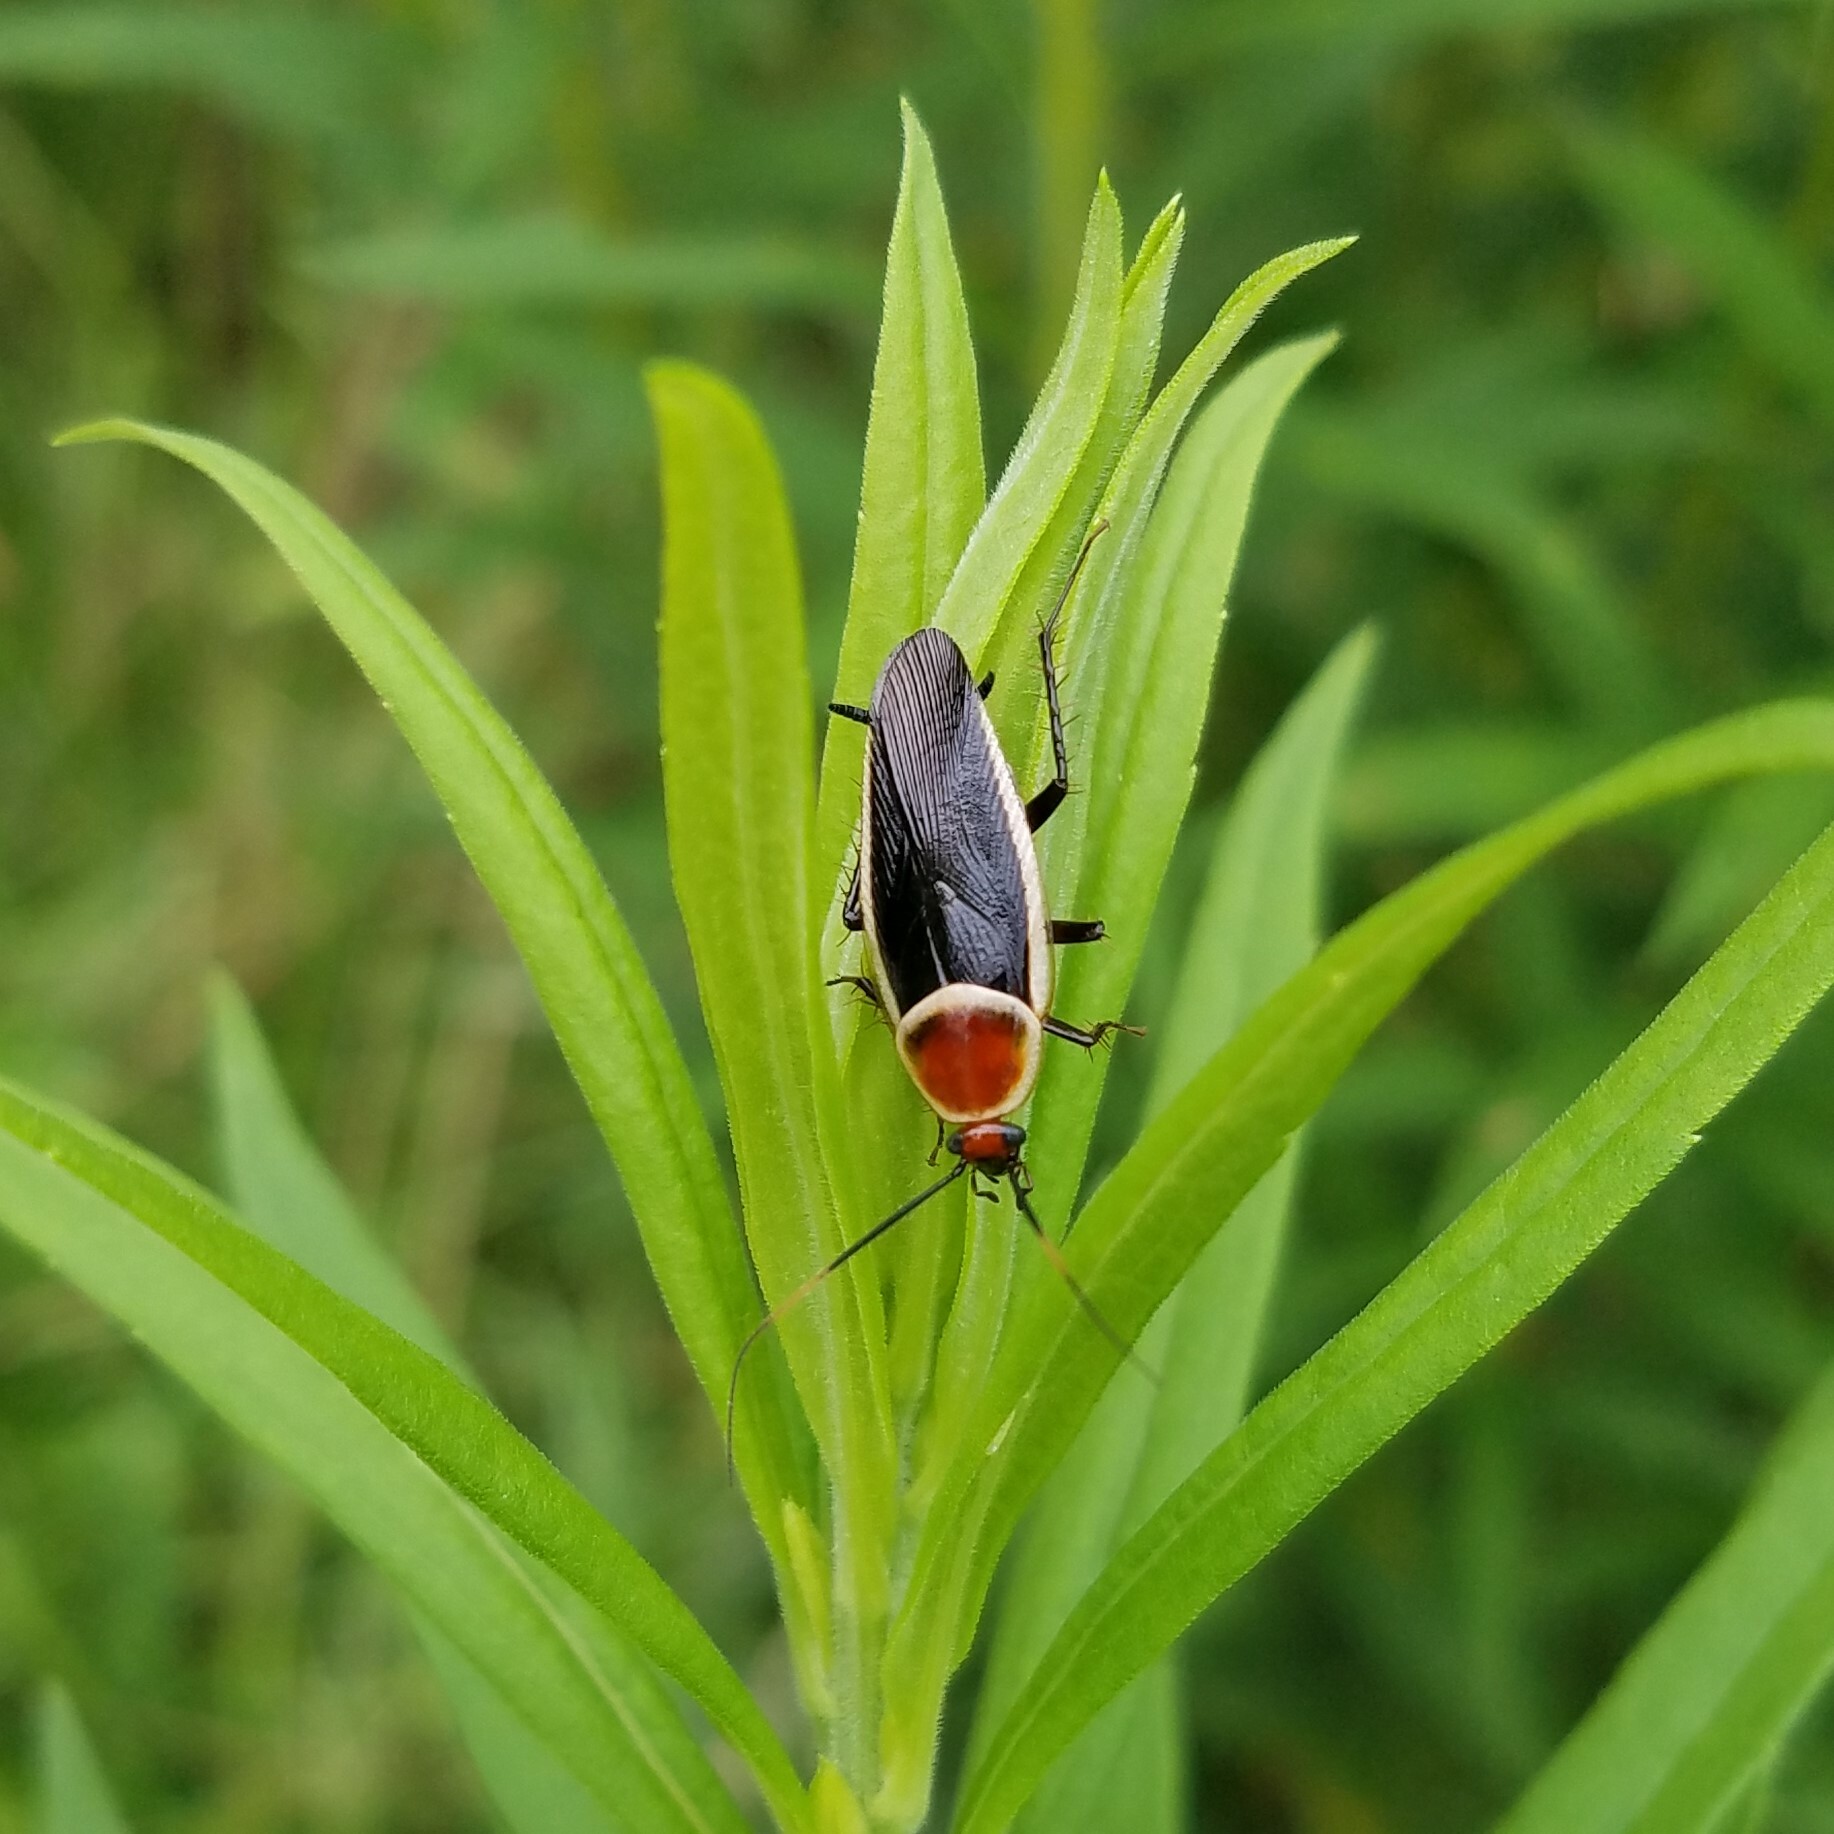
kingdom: Animalia
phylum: Arthropoda
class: Insecta
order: Blattodea
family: Ectobiidae
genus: Pseudomops
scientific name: Pseudomops septentrionalis
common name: Pale-bordered field cockroach
